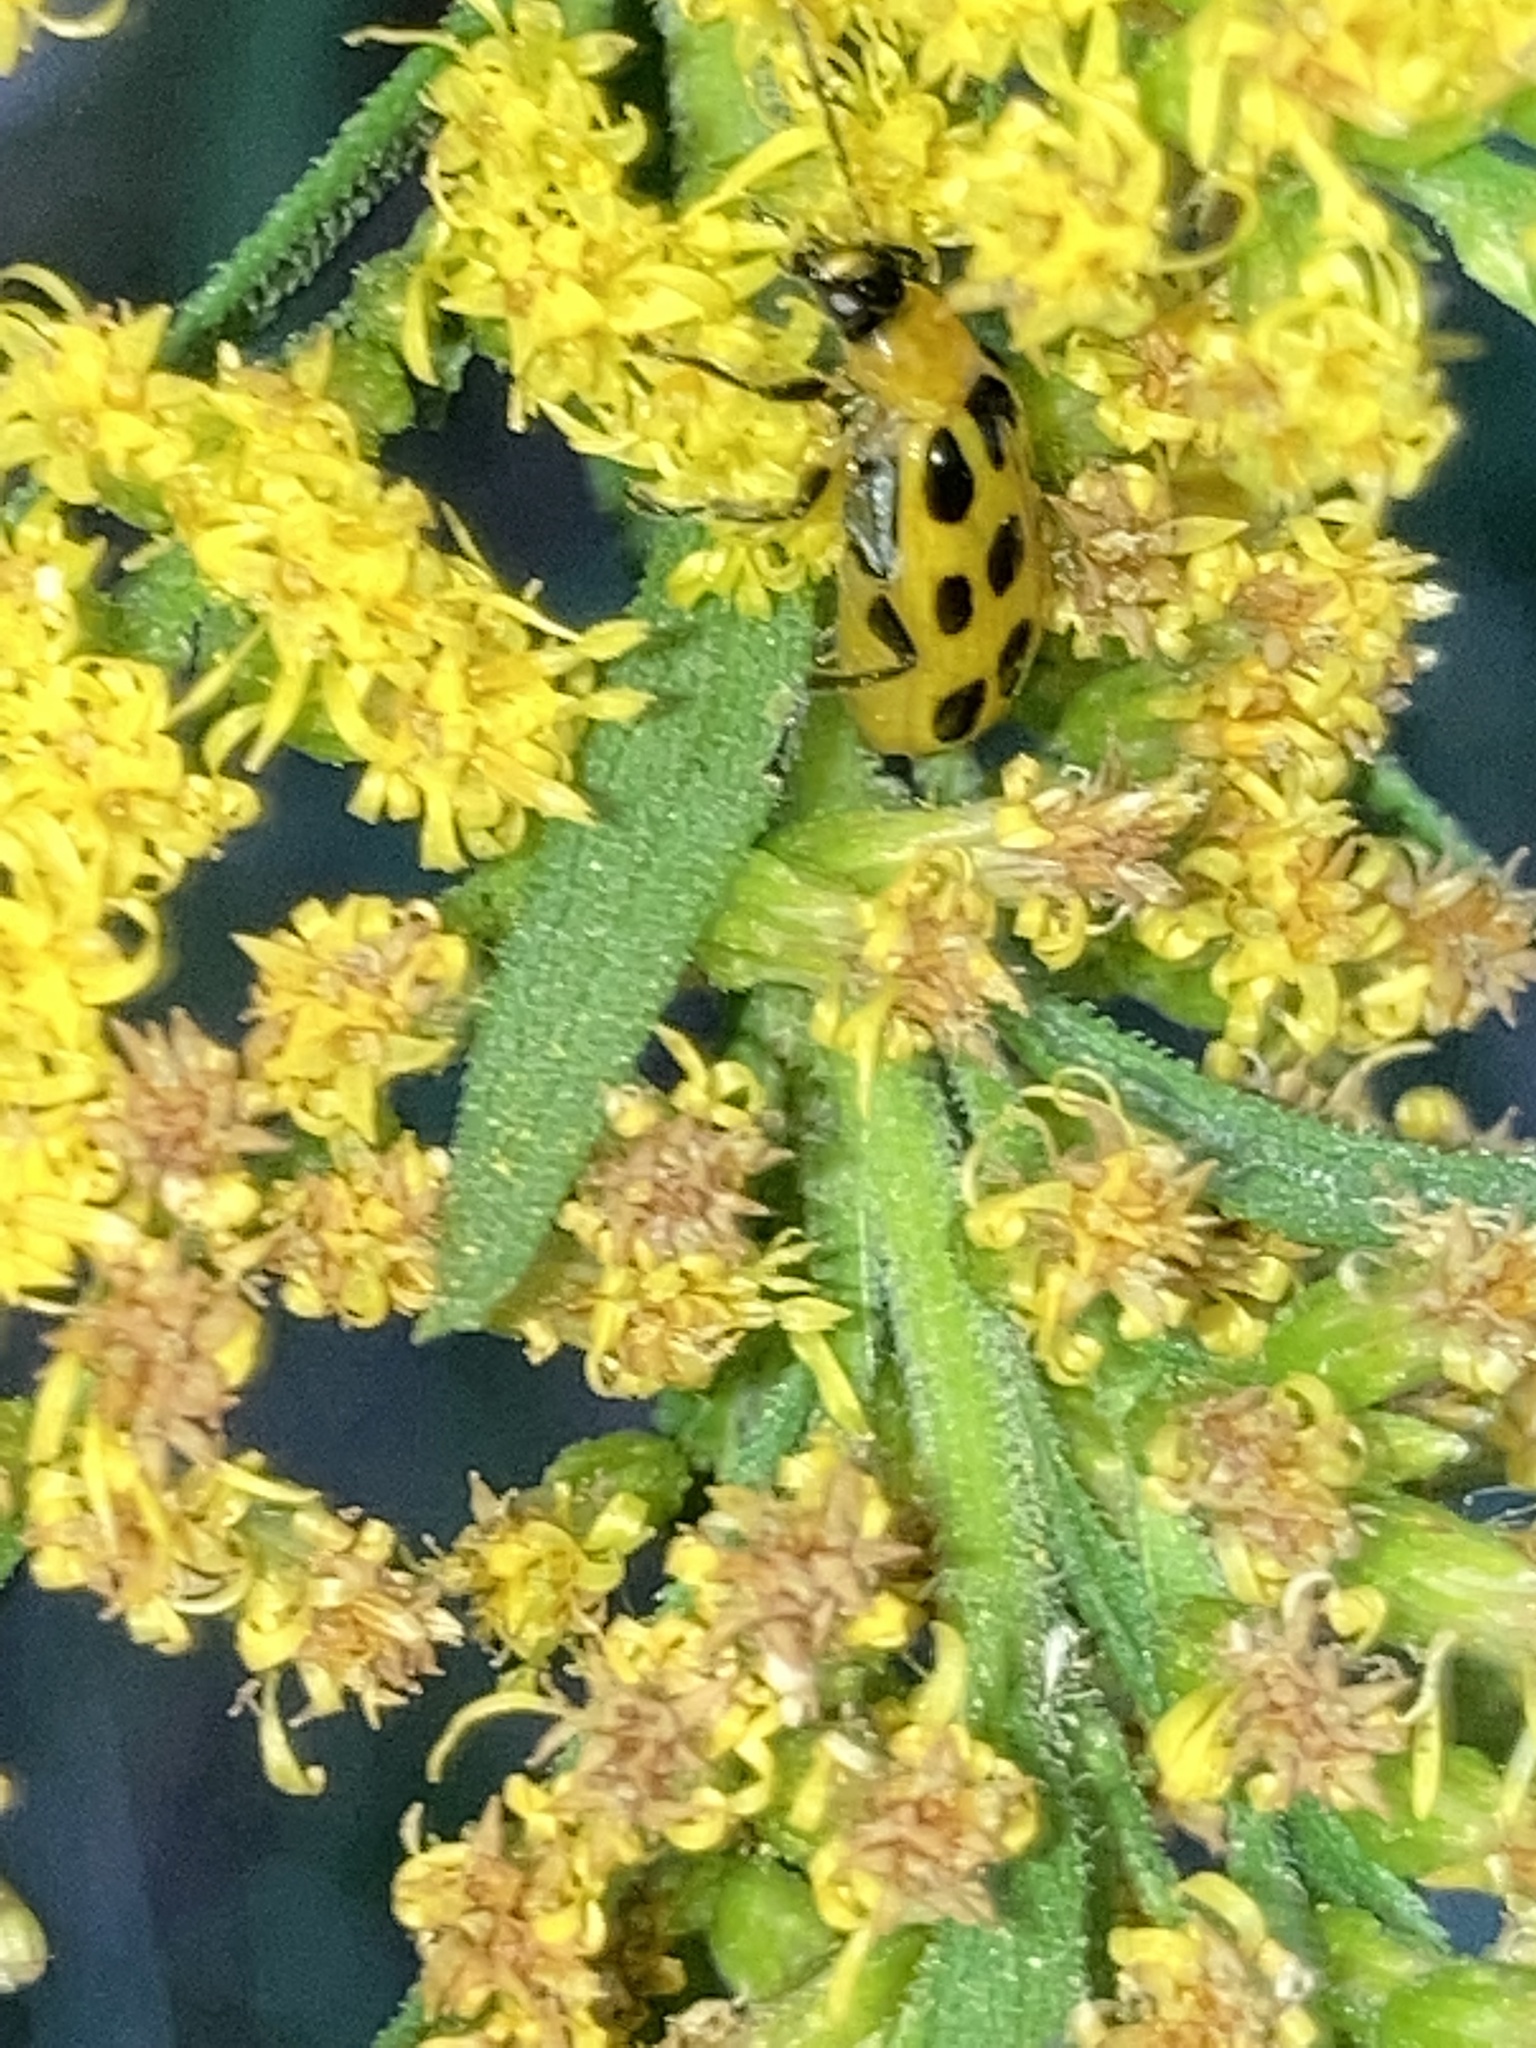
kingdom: Animalia
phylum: Arthropoda
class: Insecta
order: Coleoptera
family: Chrysomelidae
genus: Diabrotica
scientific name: Diabrotica undecimpunctata
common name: Spotted cucumber beetle
